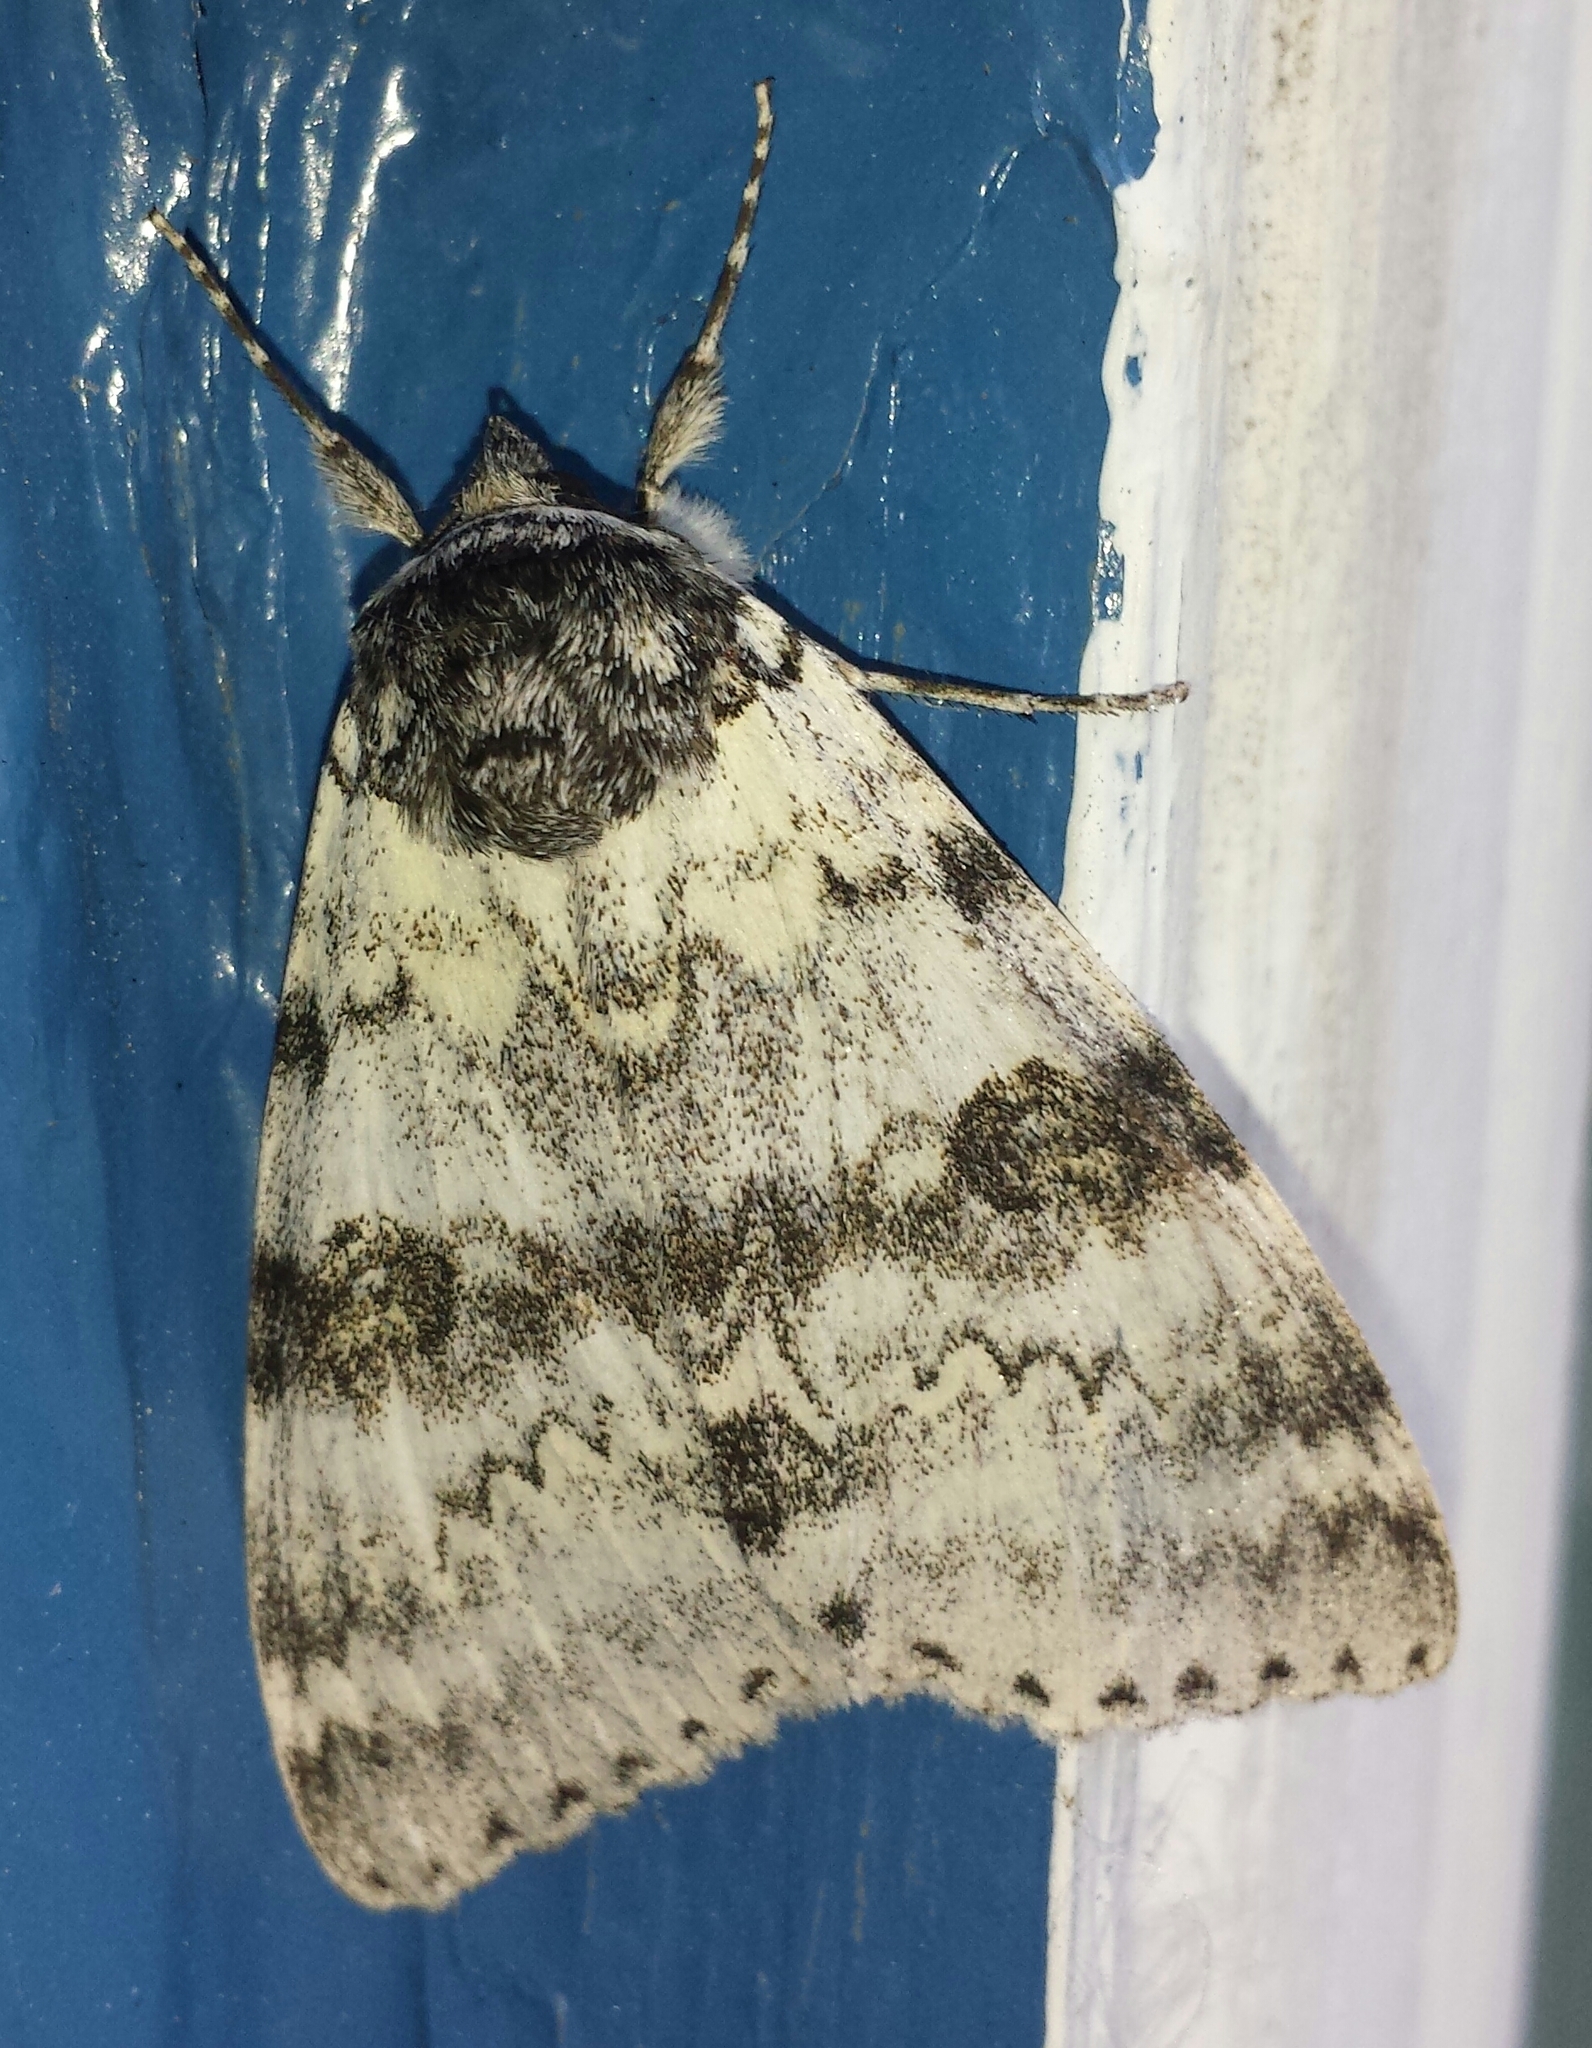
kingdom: Animalia
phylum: Arthropoda
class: Insecta
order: Lepidoptera
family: Erebidae
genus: Catocala
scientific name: Catocala relicta
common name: White underwing
